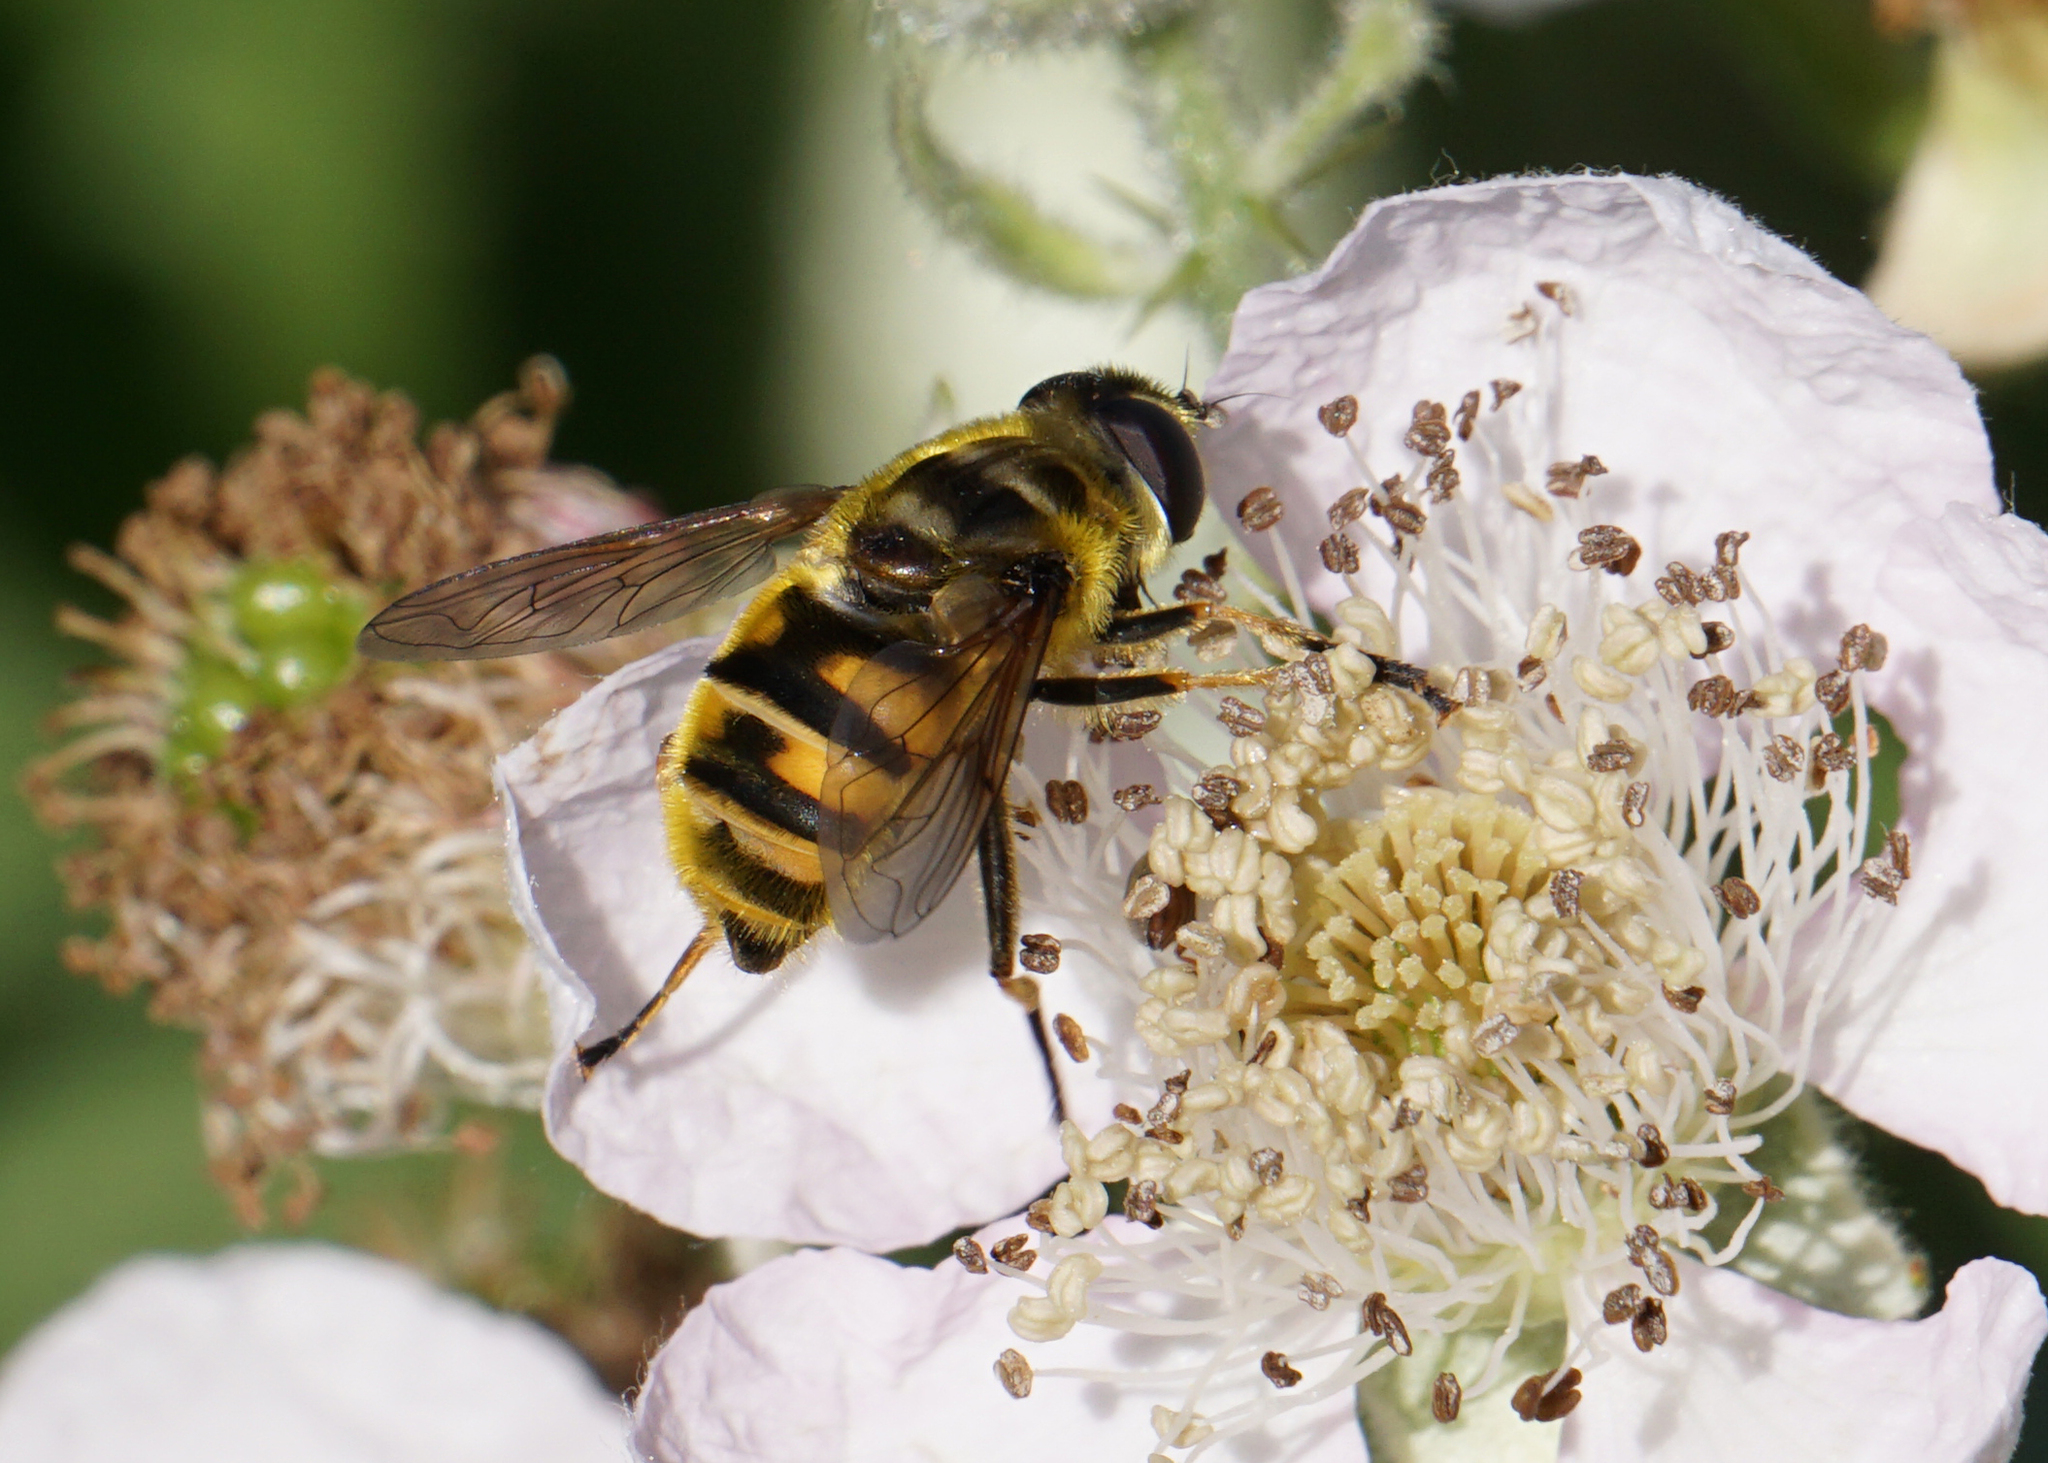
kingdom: Animalia
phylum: Arthropoda
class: Insecta
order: Diptera
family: Syrphidae
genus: Myathropa
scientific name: Myathropa florea
